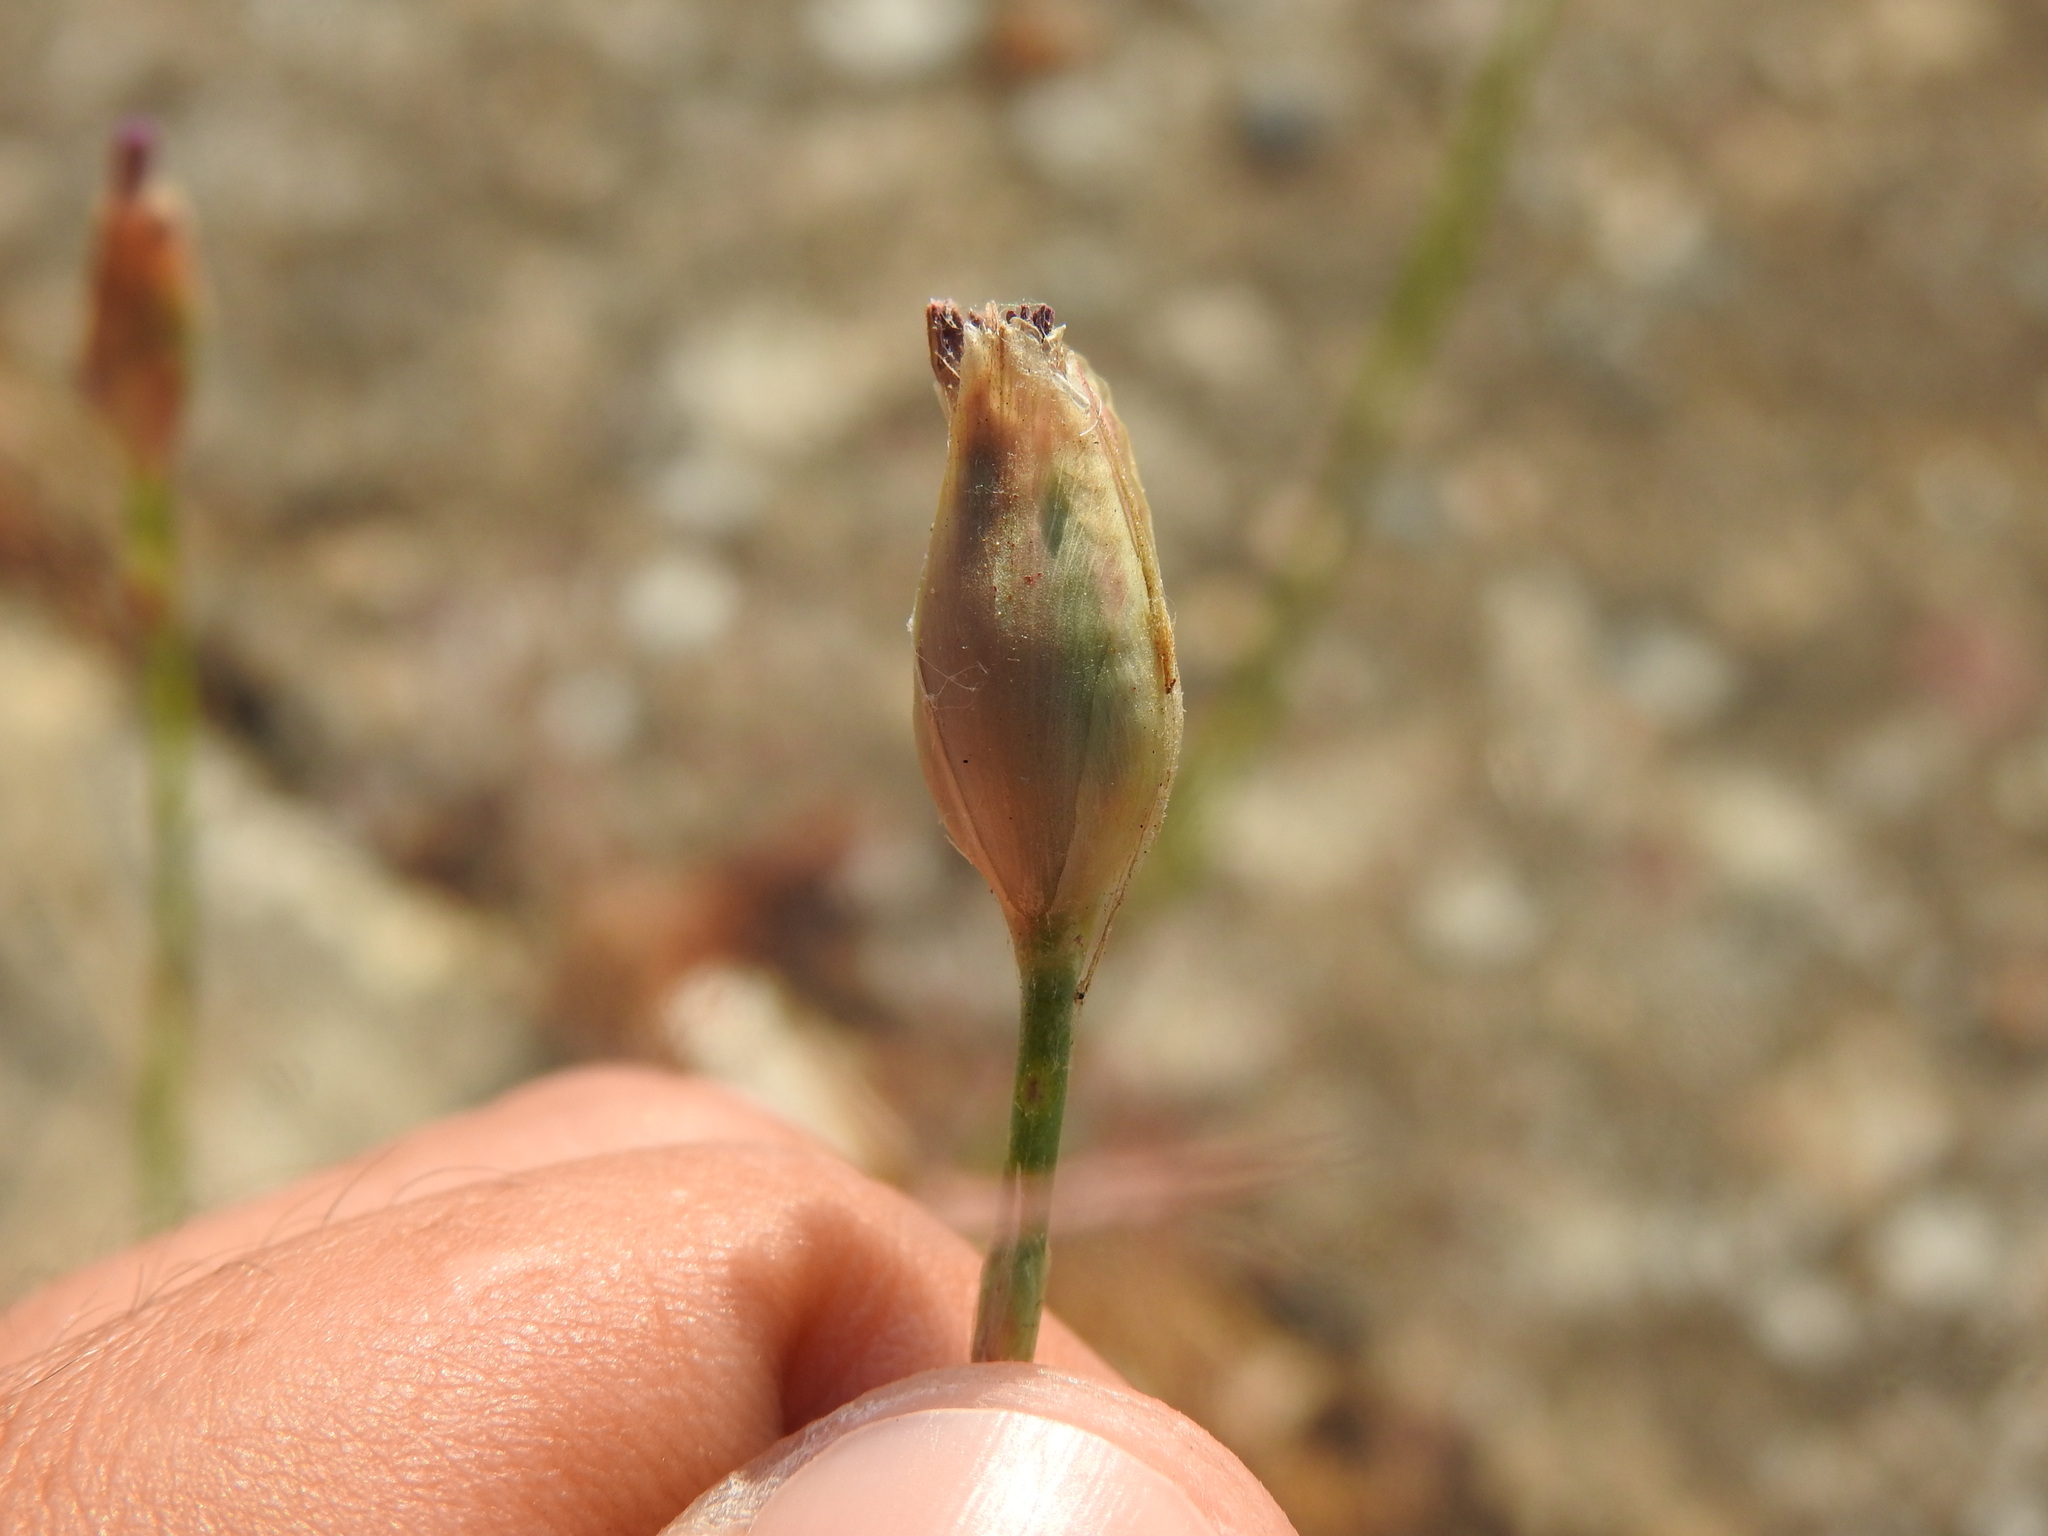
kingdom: Plantae
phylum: Tracheophyta
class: Magnoliopsida
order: Caryophyllales
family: Caryophyllaceae
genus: Petrorhagia
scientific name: Petrorhagia nanteuilii
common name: Proliferous pink
